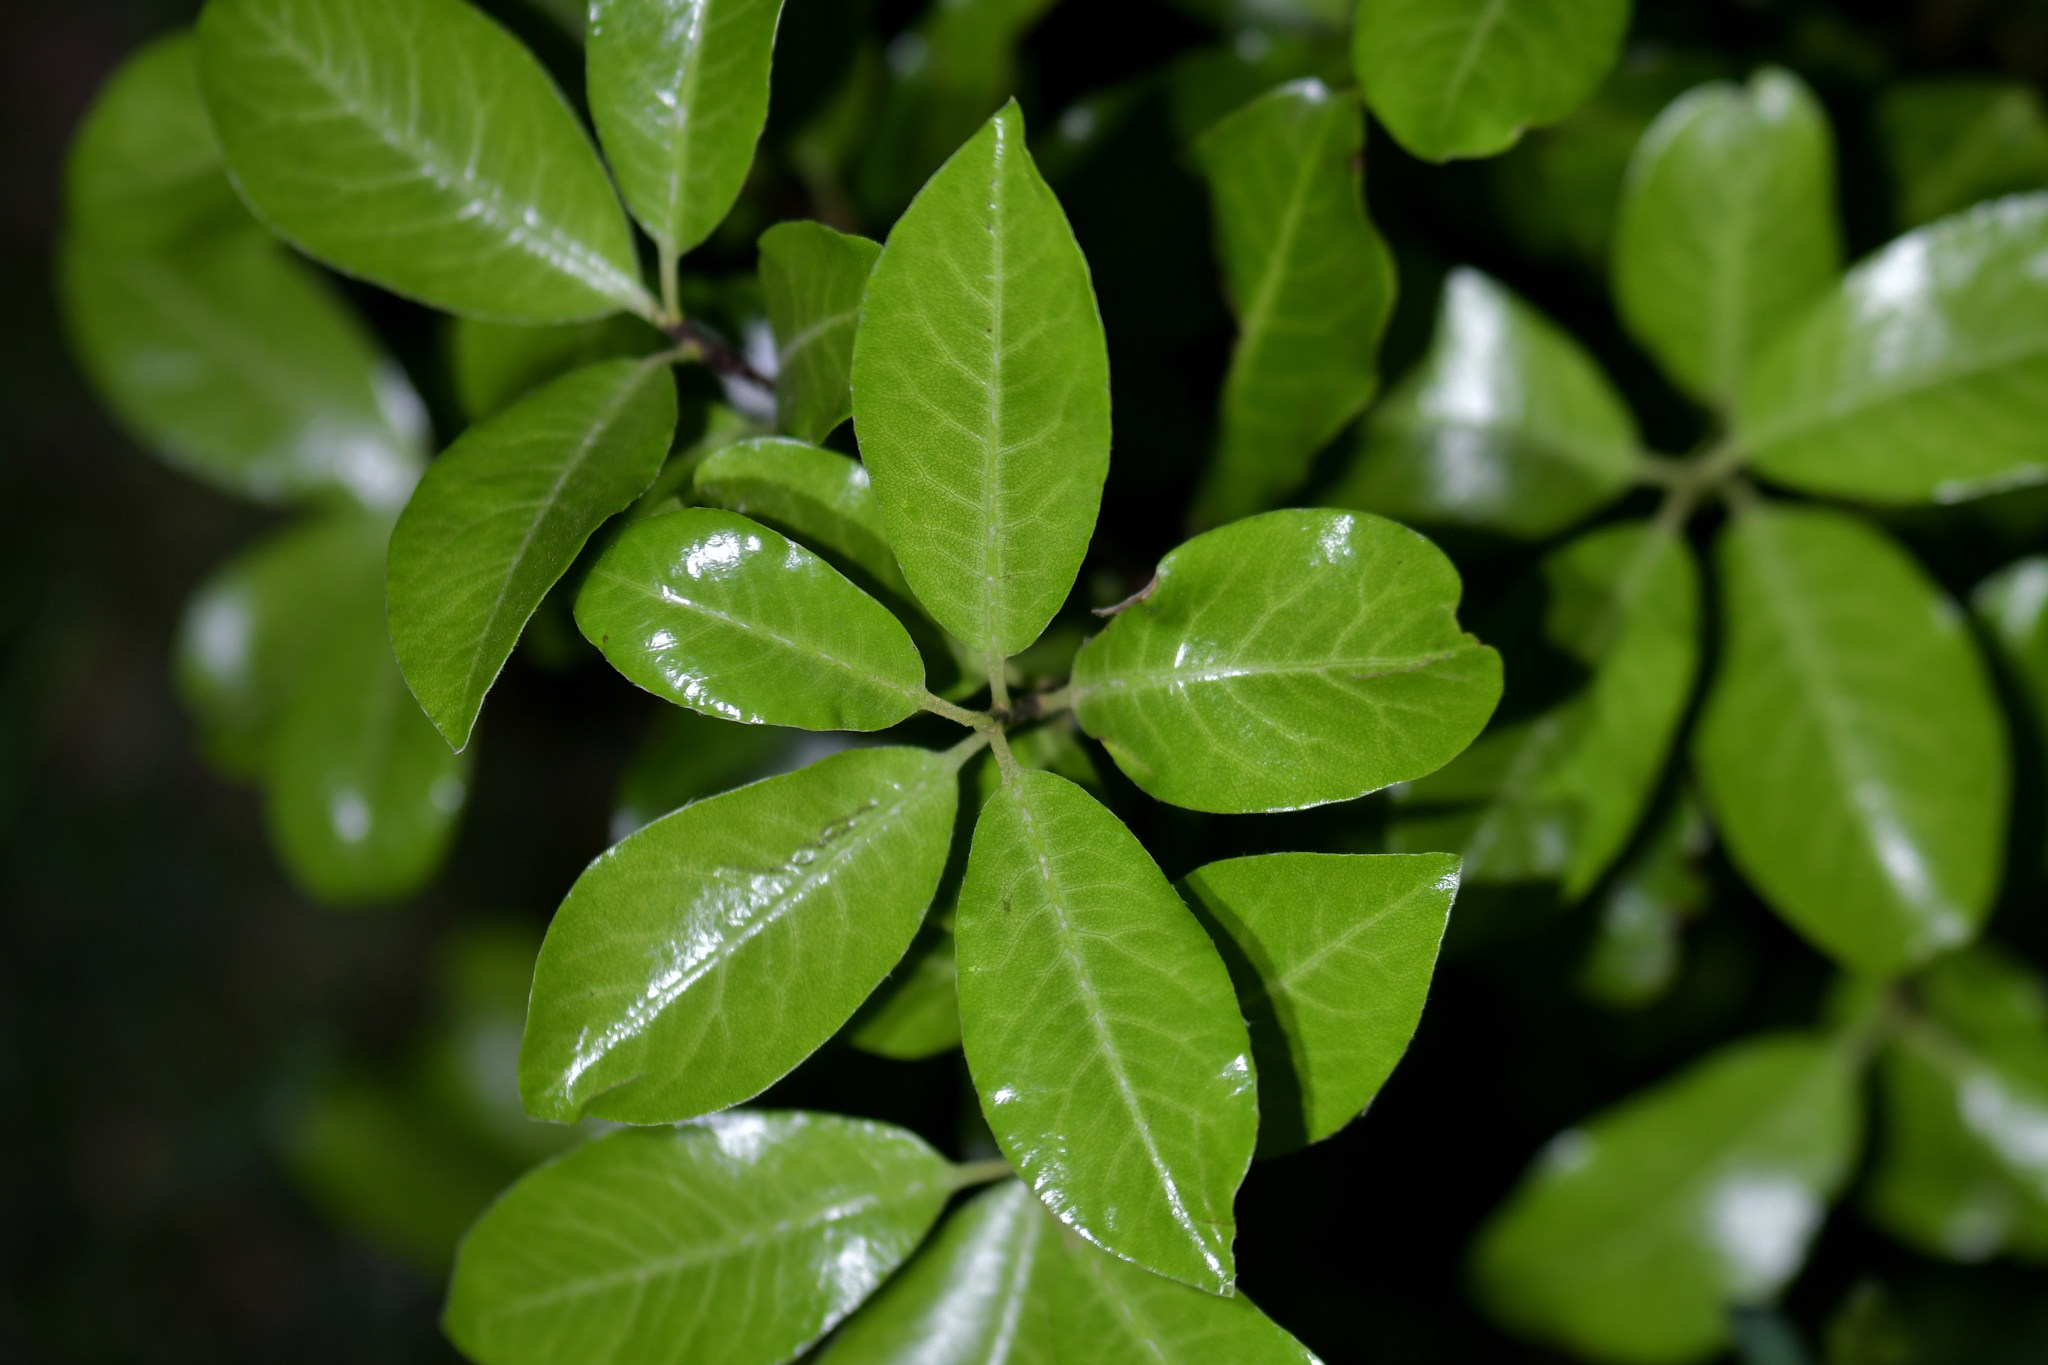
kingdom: Plantae
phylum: Tracheophyta
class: Magnoliopsida
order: Apiales
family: Pittosporaceae
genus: Pittosporum
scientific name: Pittosporum tenuifolium
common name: Kohuhu
